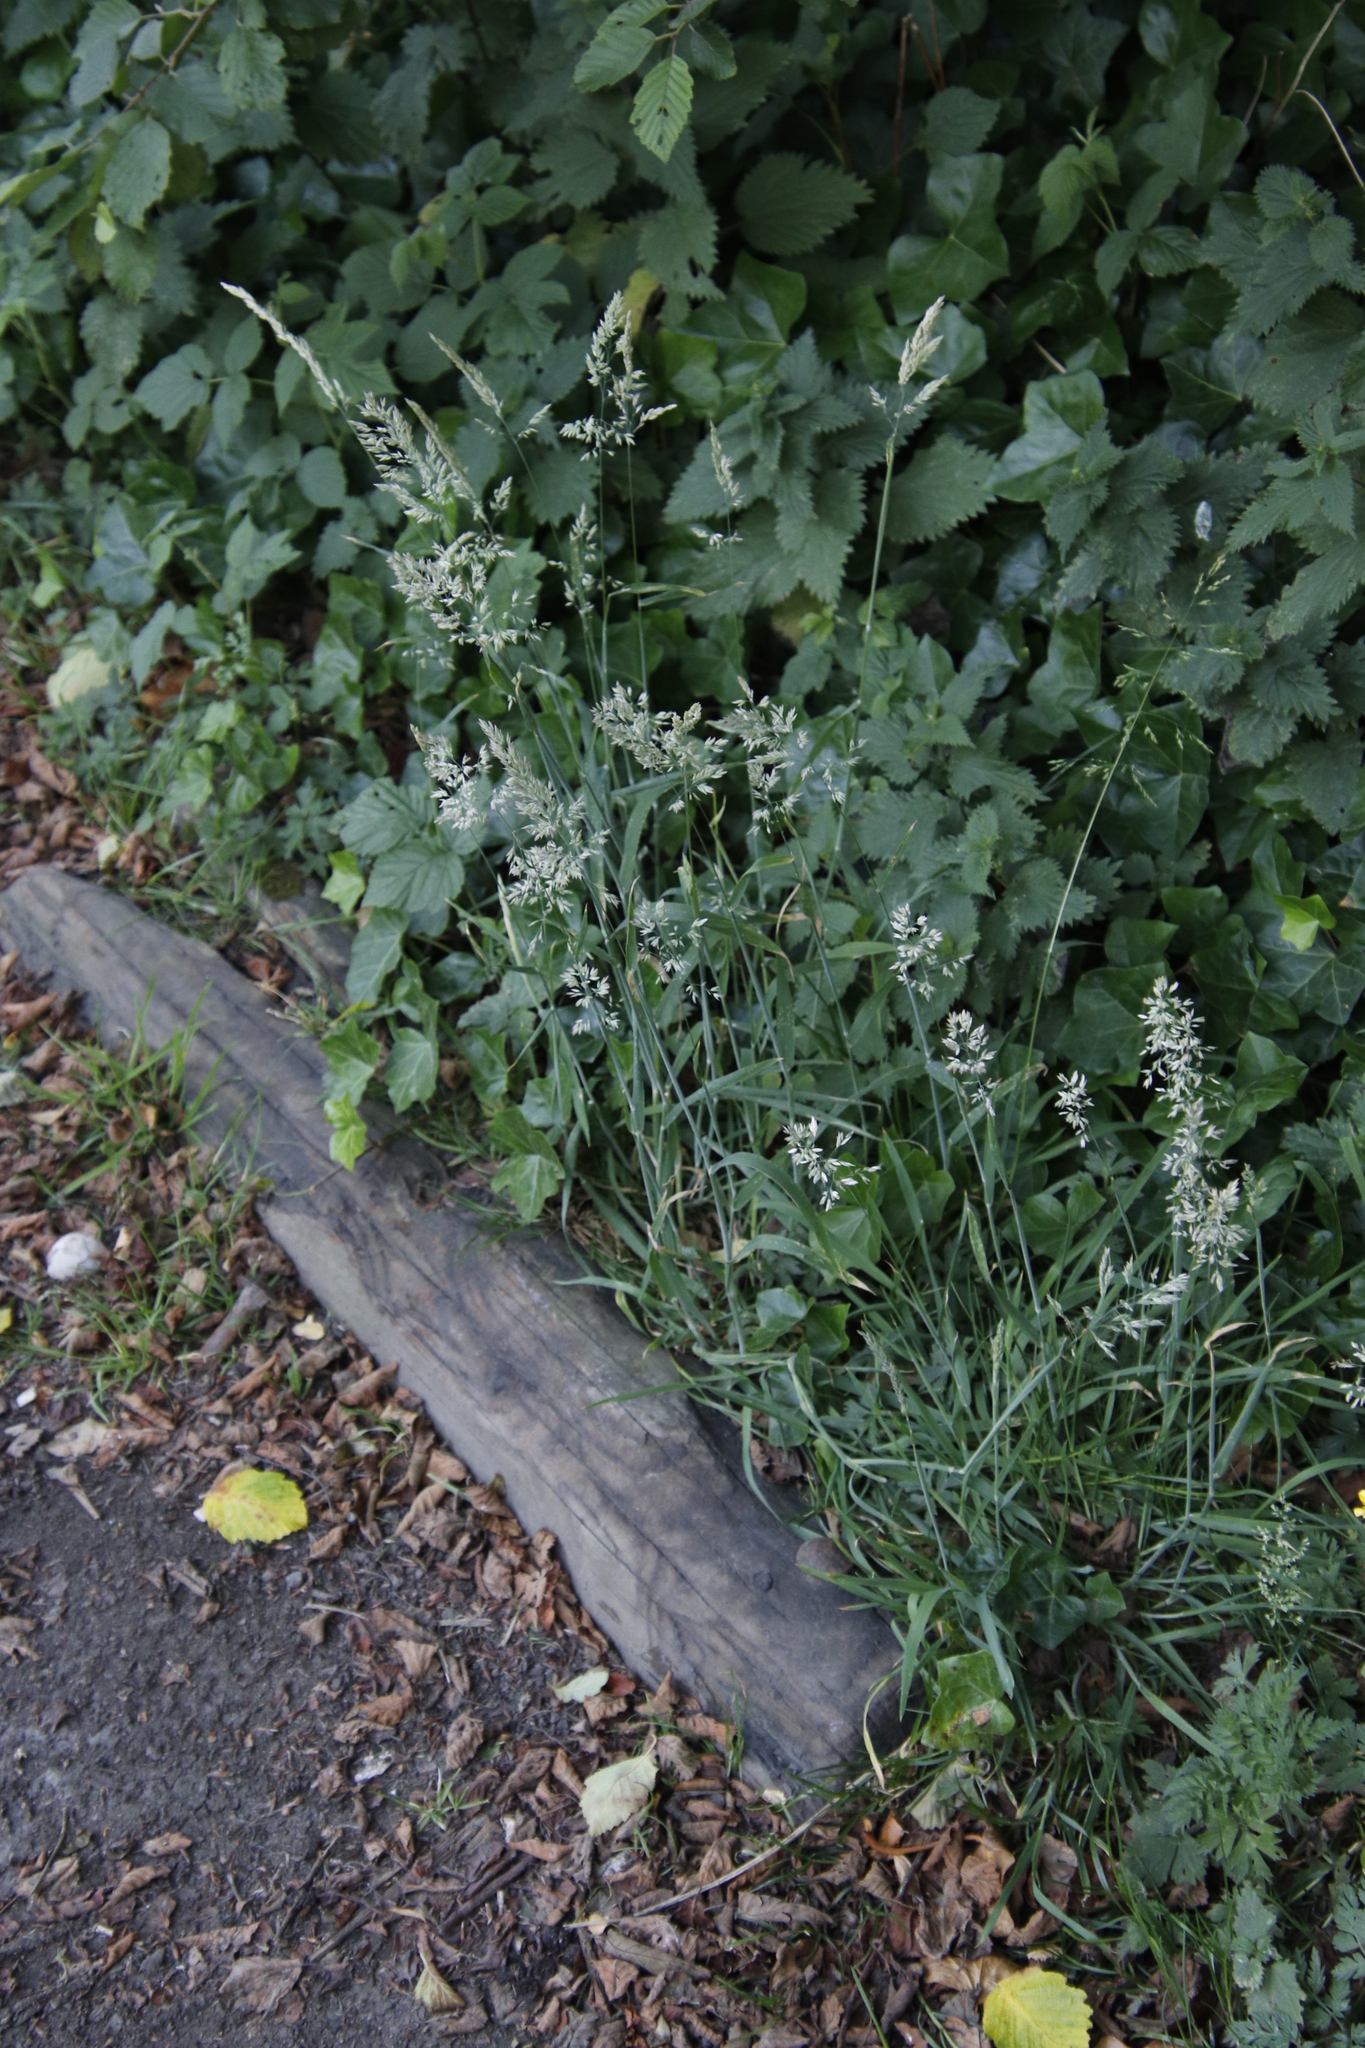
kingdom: Plantae
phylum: Tracheophyta
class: Liliopsida
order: Poales
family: Poaceae
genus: Holcus
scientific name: Holcus lanatus
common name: Yorkshire-fog
